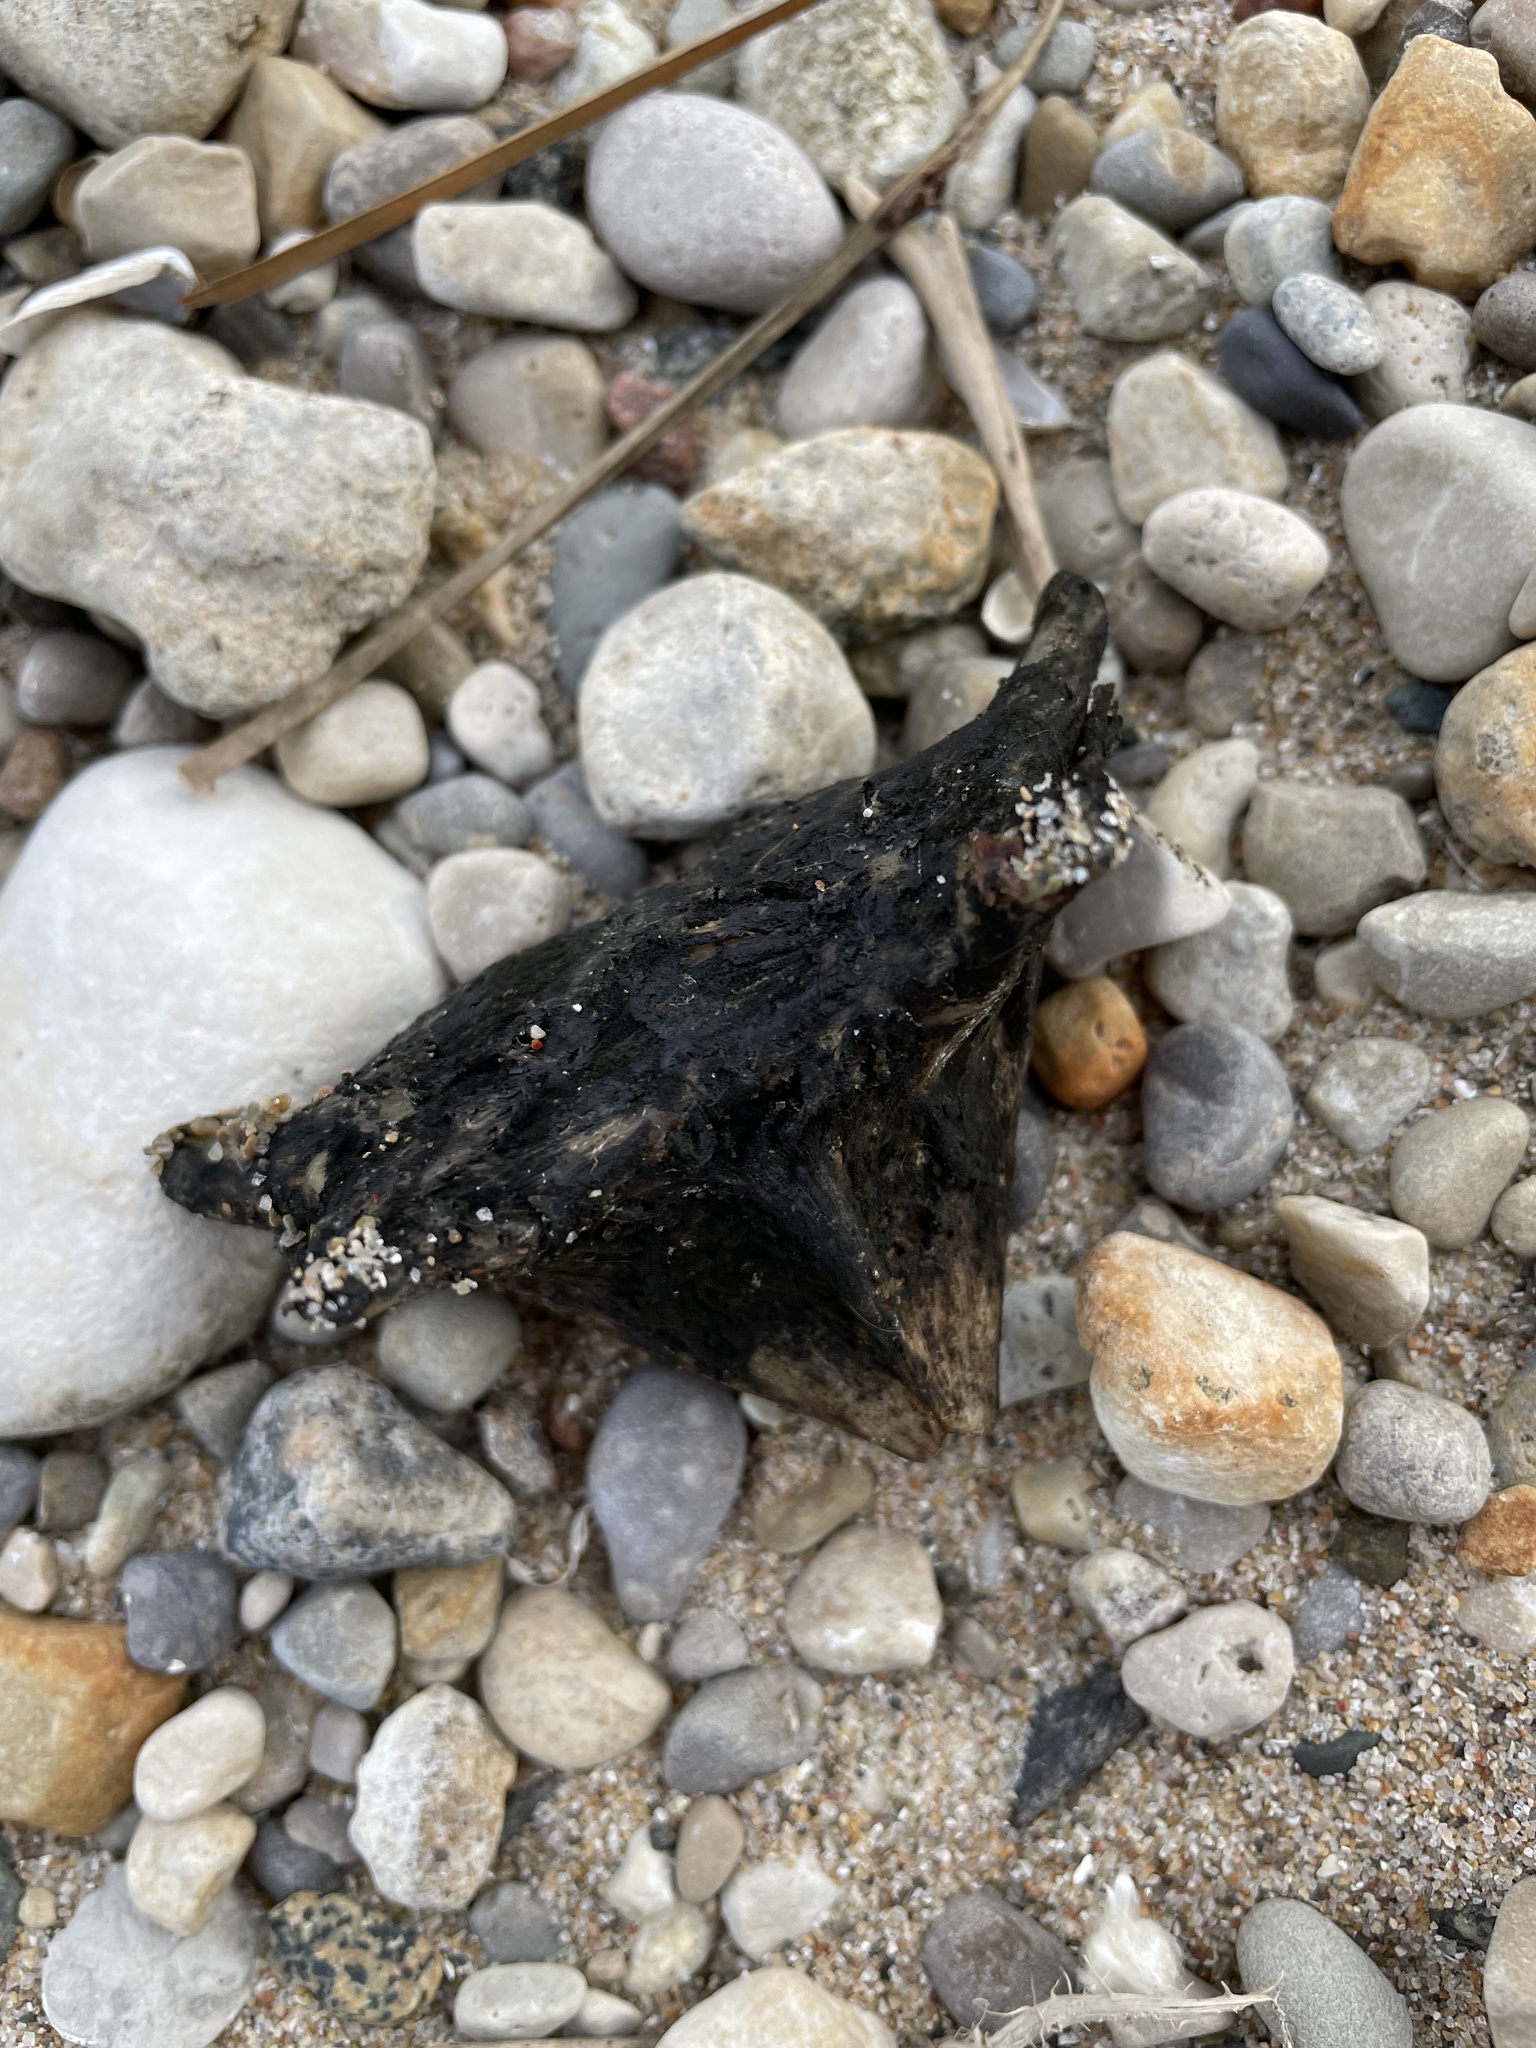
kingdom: Animalia
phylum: Chordata
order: Perciformes
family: Sciaenidae
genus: Aplodinotus
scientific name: Aplodinotus grunniens
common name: Freshwater drum
